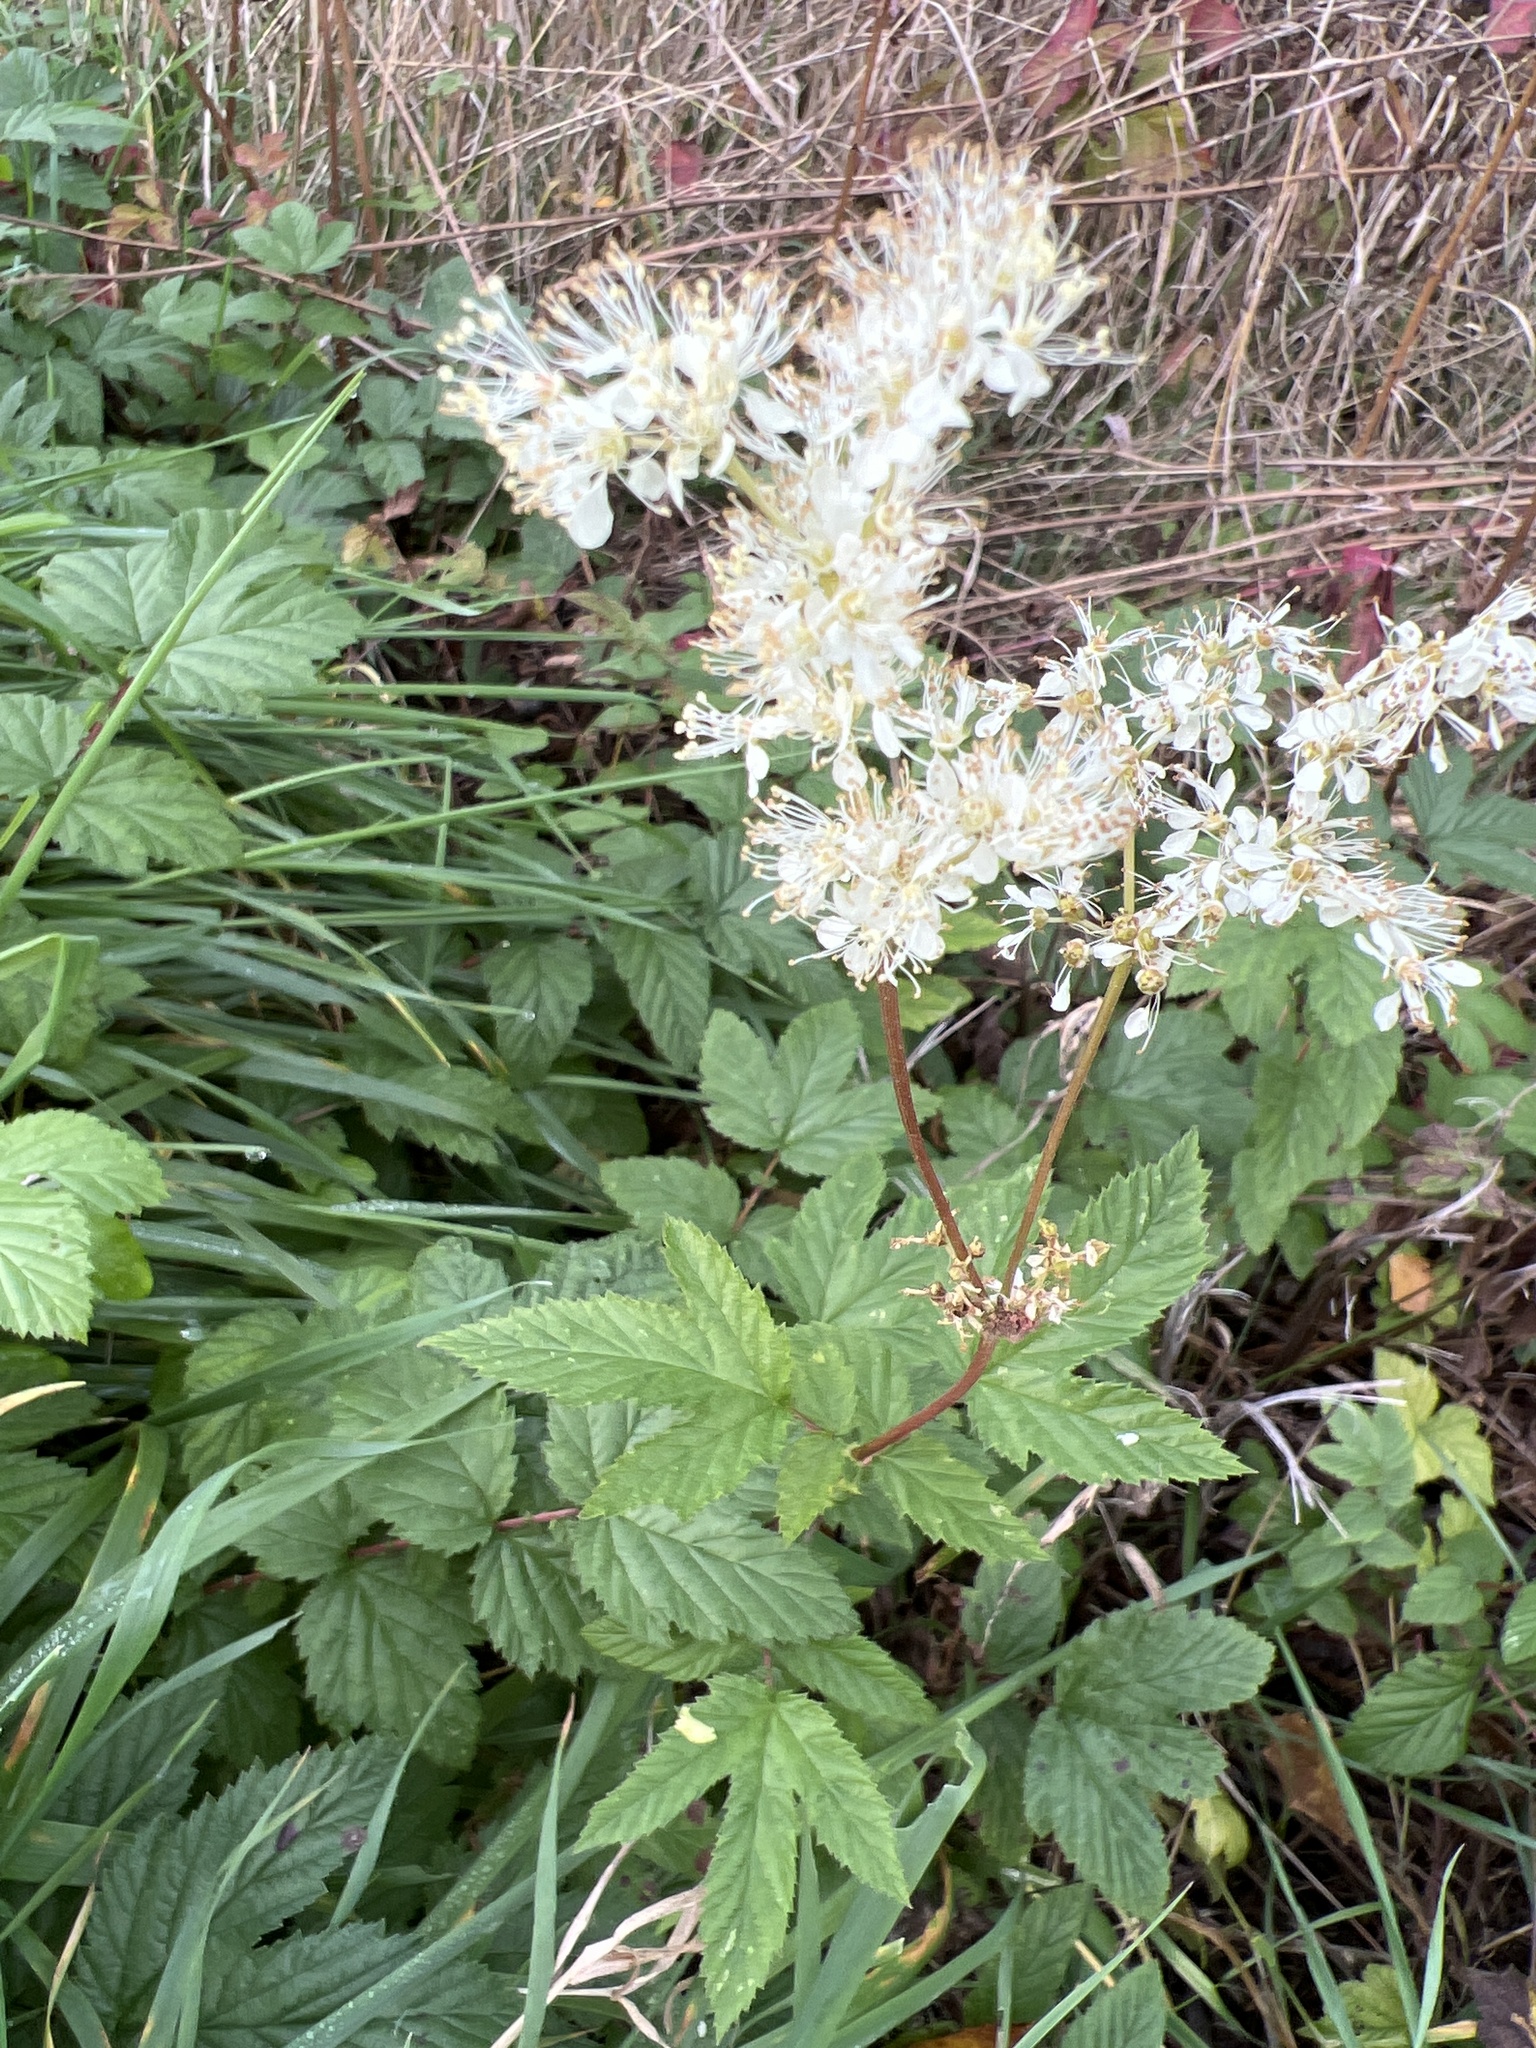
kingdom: Plantae
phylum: Tracheophyta
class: Magnoliopsida
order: Rosales
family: Rosaceae
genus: Filipendula
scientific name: Filipendula ulmaria
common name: Meadowsweet
